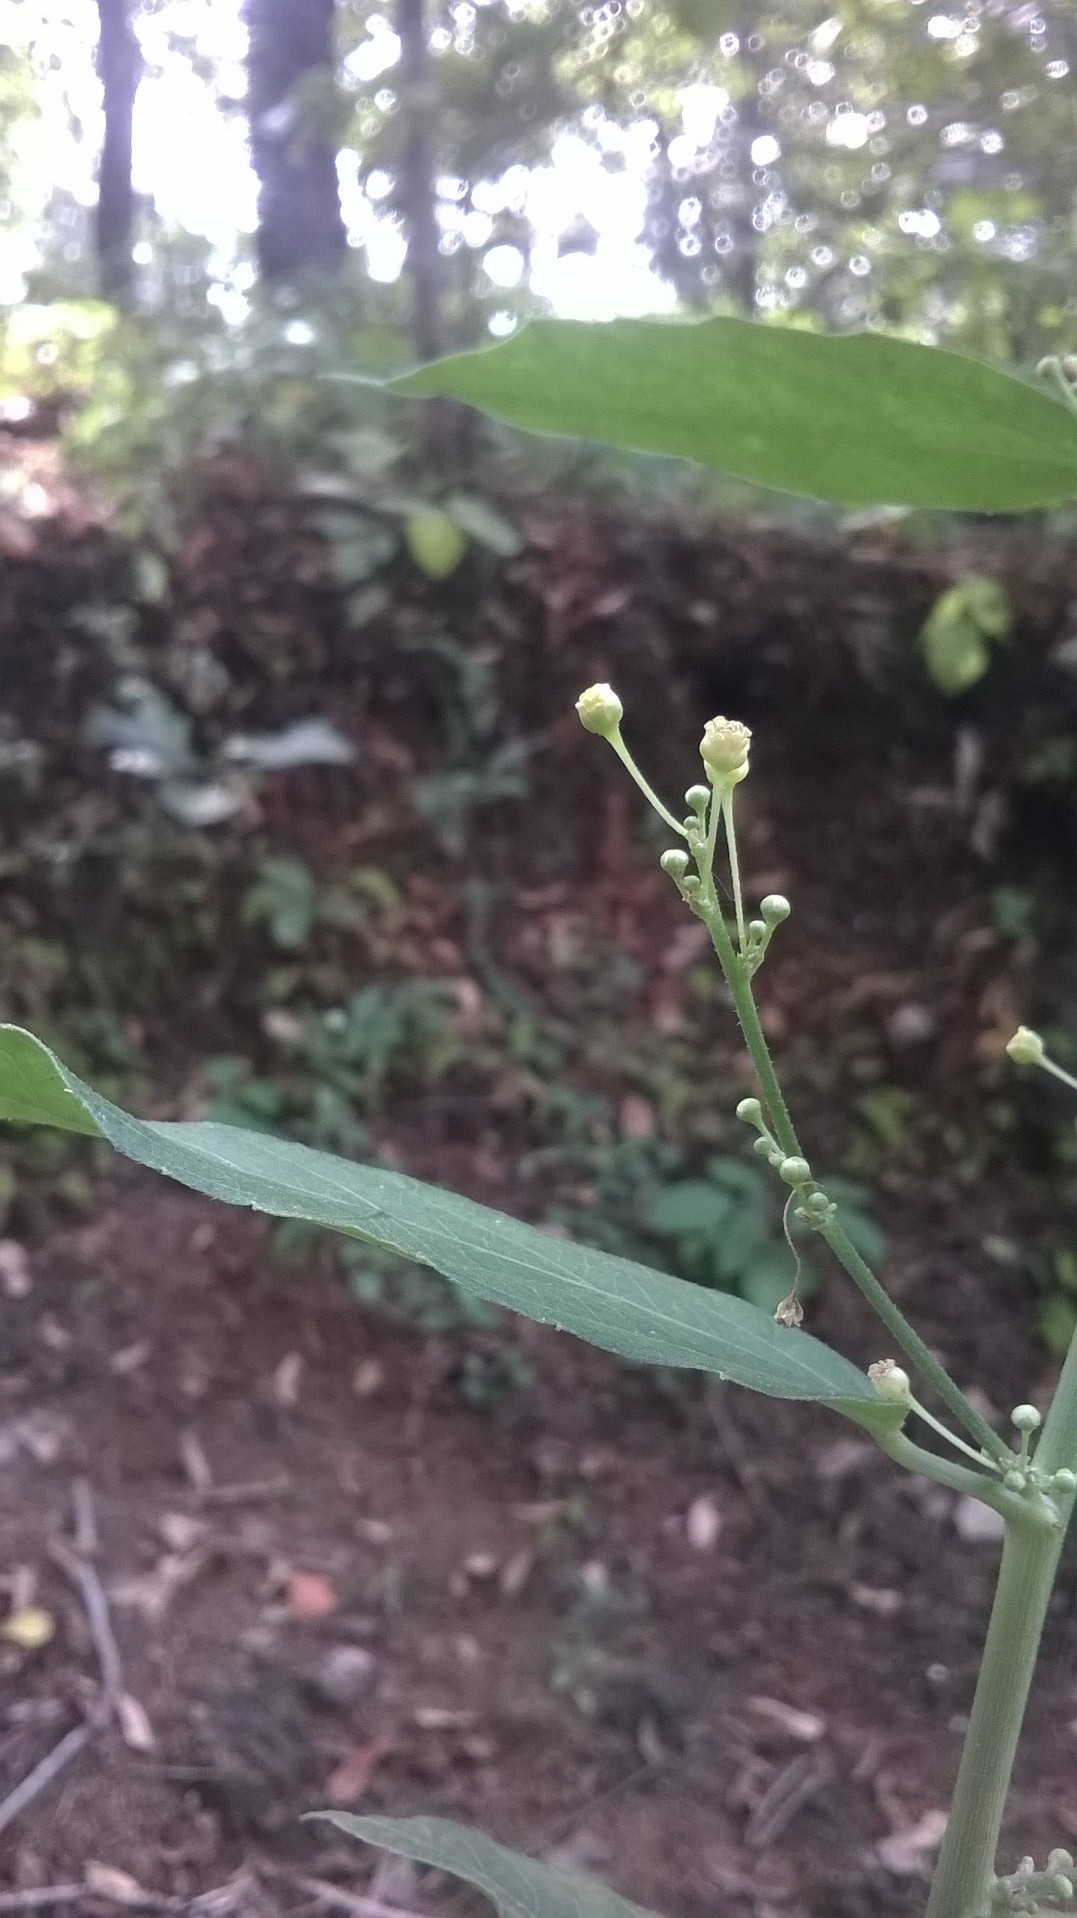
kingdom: Plantae
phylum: Tracheophyta
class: Magnoliopsida
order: Malpighiales
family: Euphorbiaceae
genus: Baliospermum
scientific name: Baliospermum solanifolium
